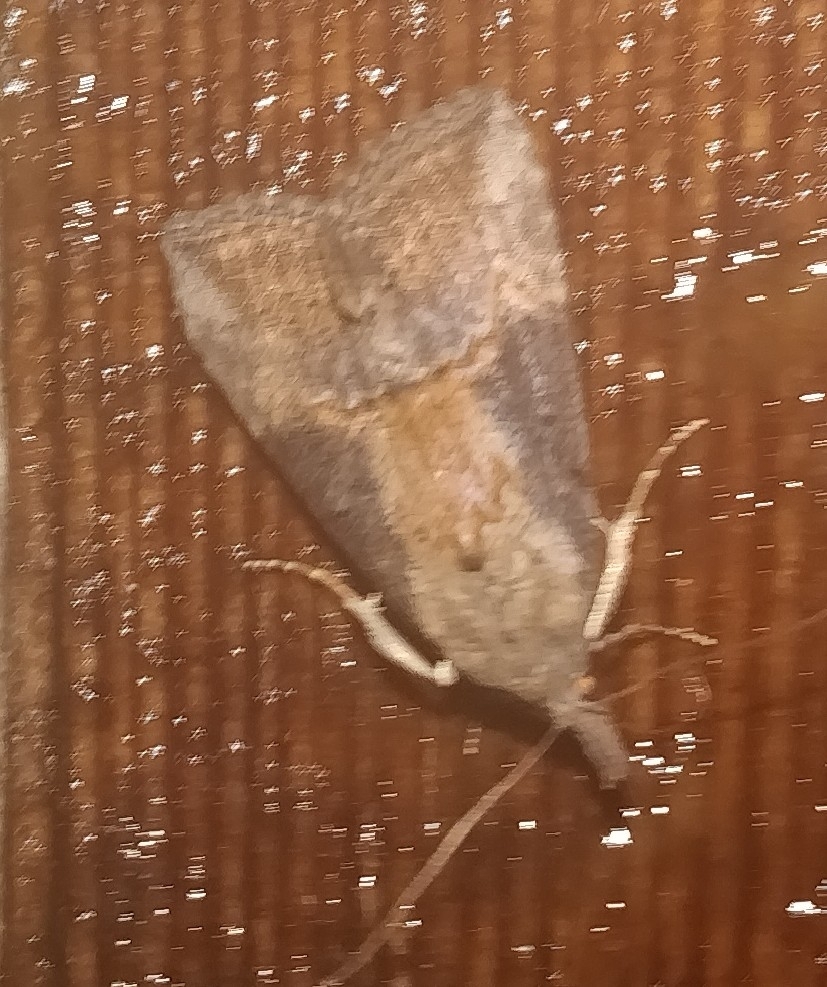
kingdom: Animalia
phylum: Arthropoda
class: Insecta
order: Lepidoptera
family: Erebidae
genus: Hypena
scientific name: Hypena scabra
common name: Green cloverworm
